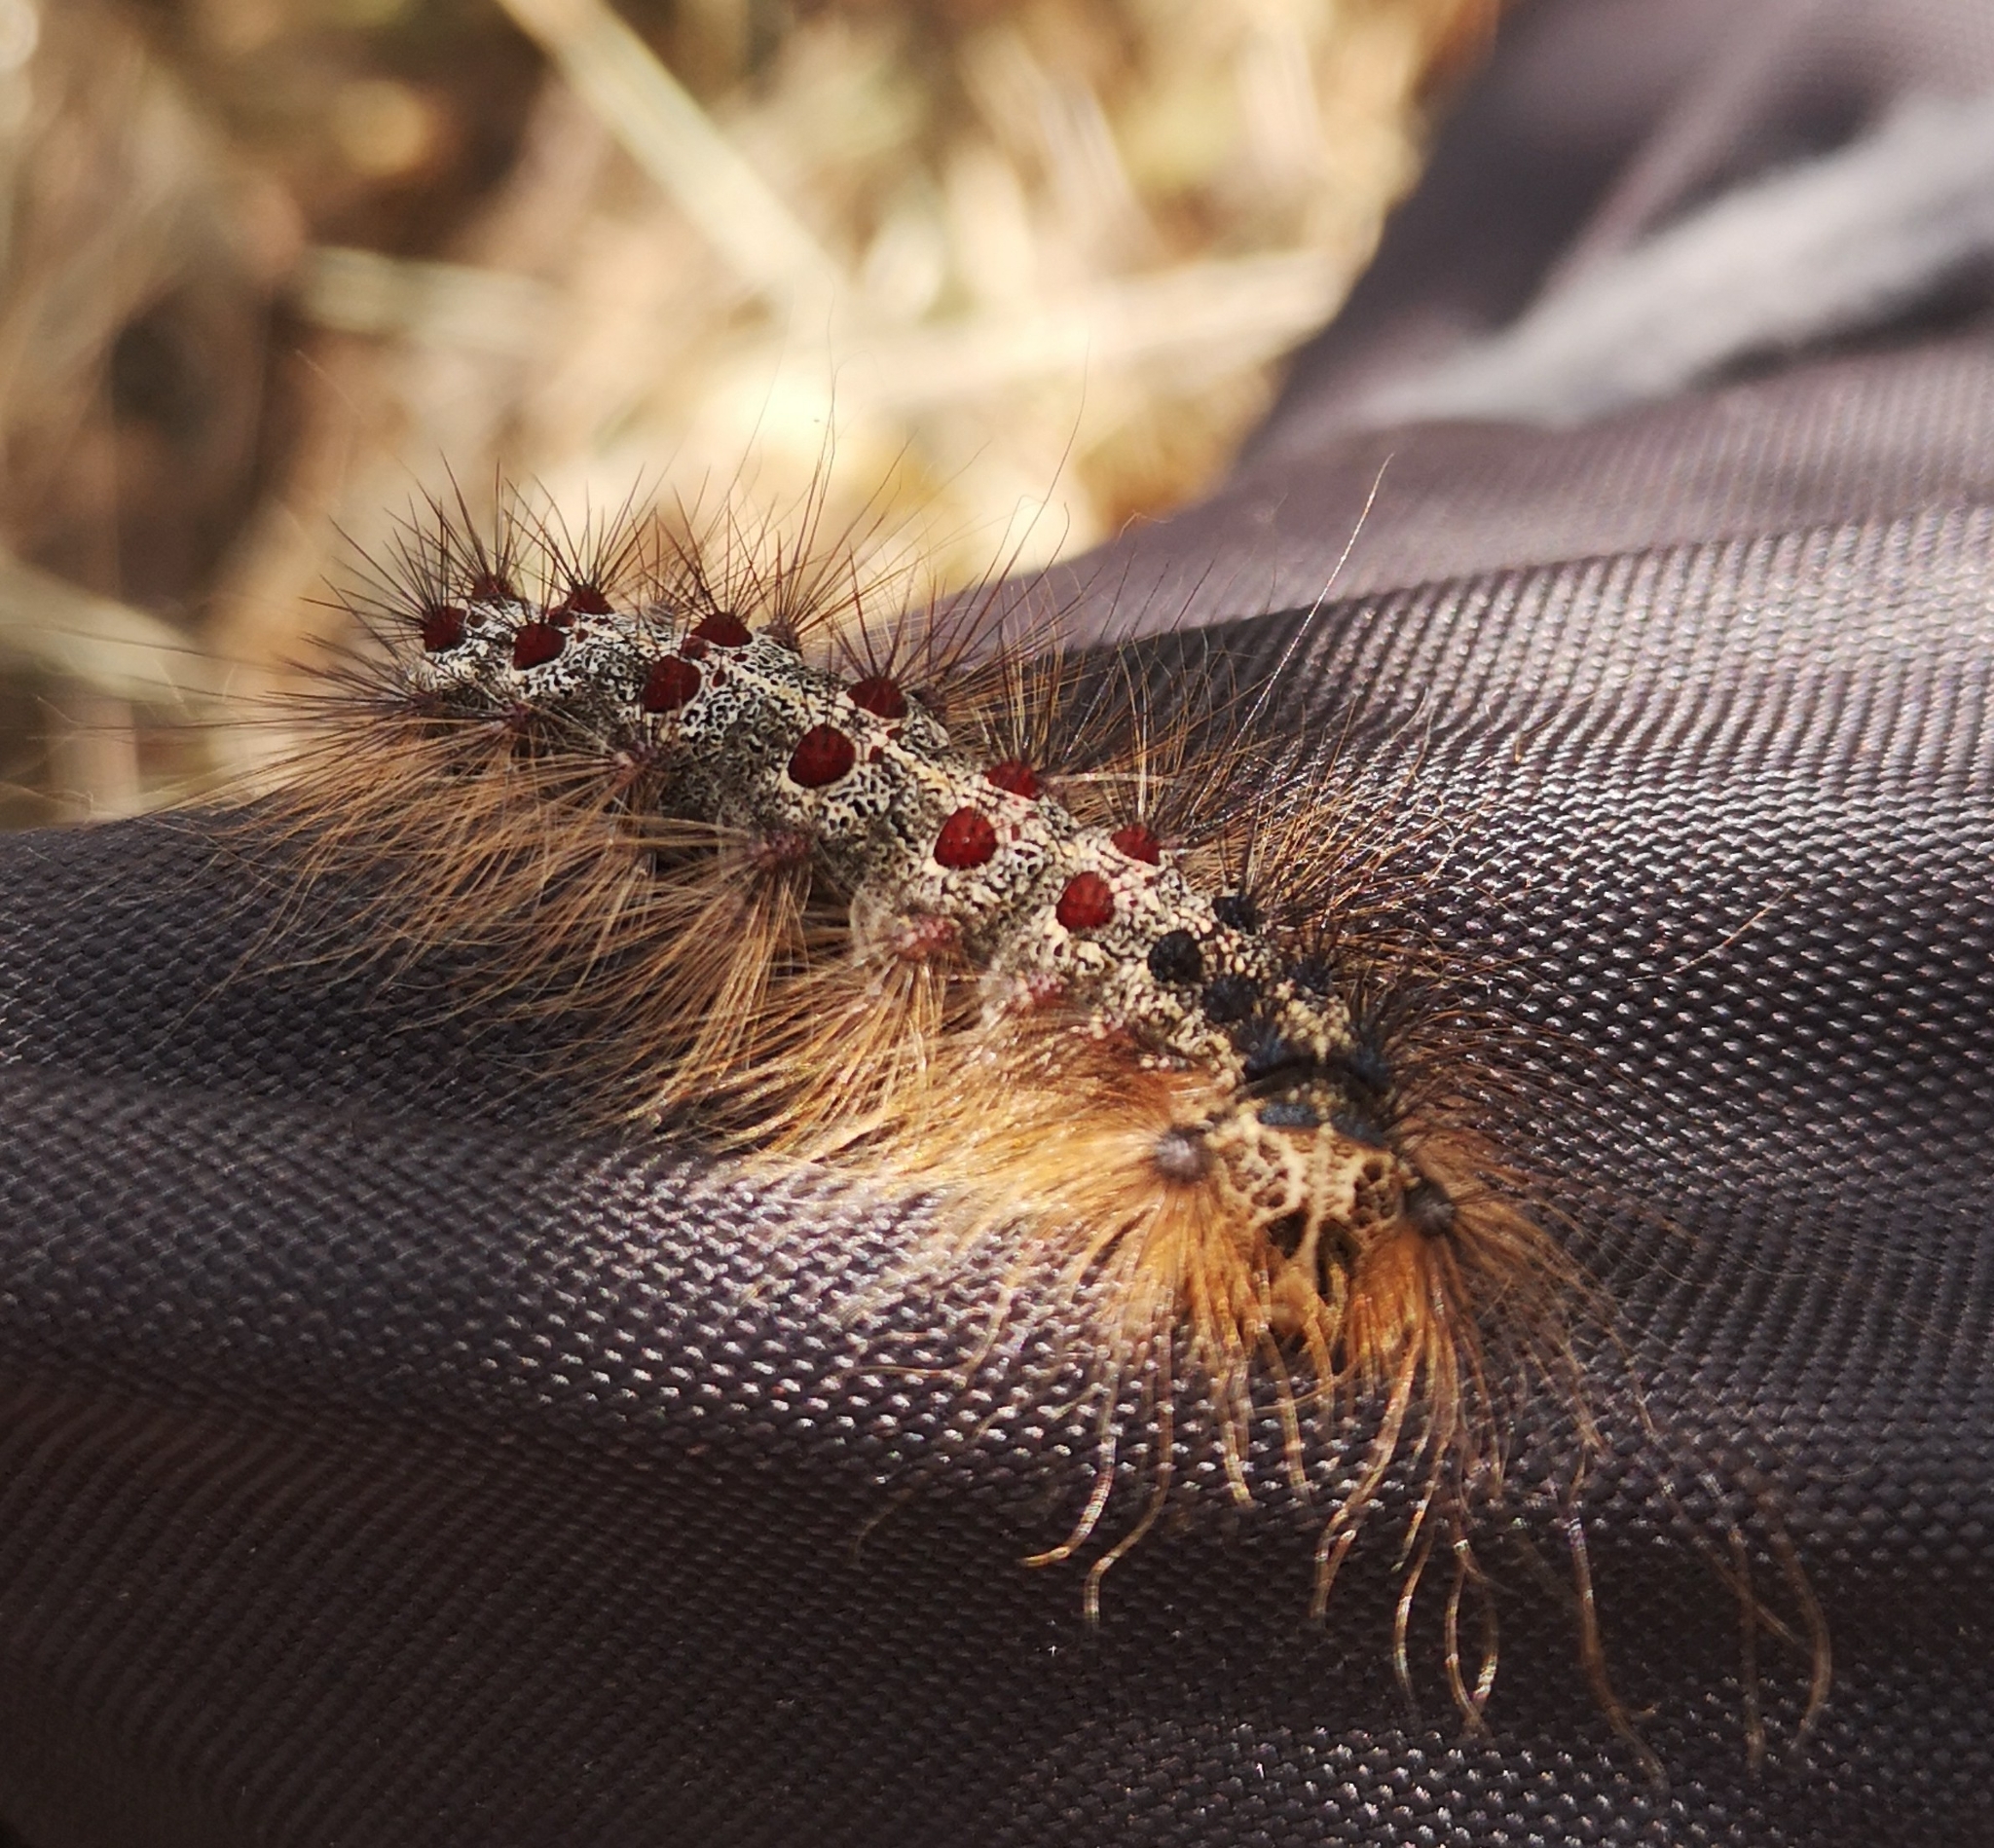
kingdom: Animalia
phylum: Arthropoda
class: Insecta
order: Lepidoptera
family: Erebidae
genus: Lymantria
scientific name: Lymantria dispar
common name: Gypsy moth
